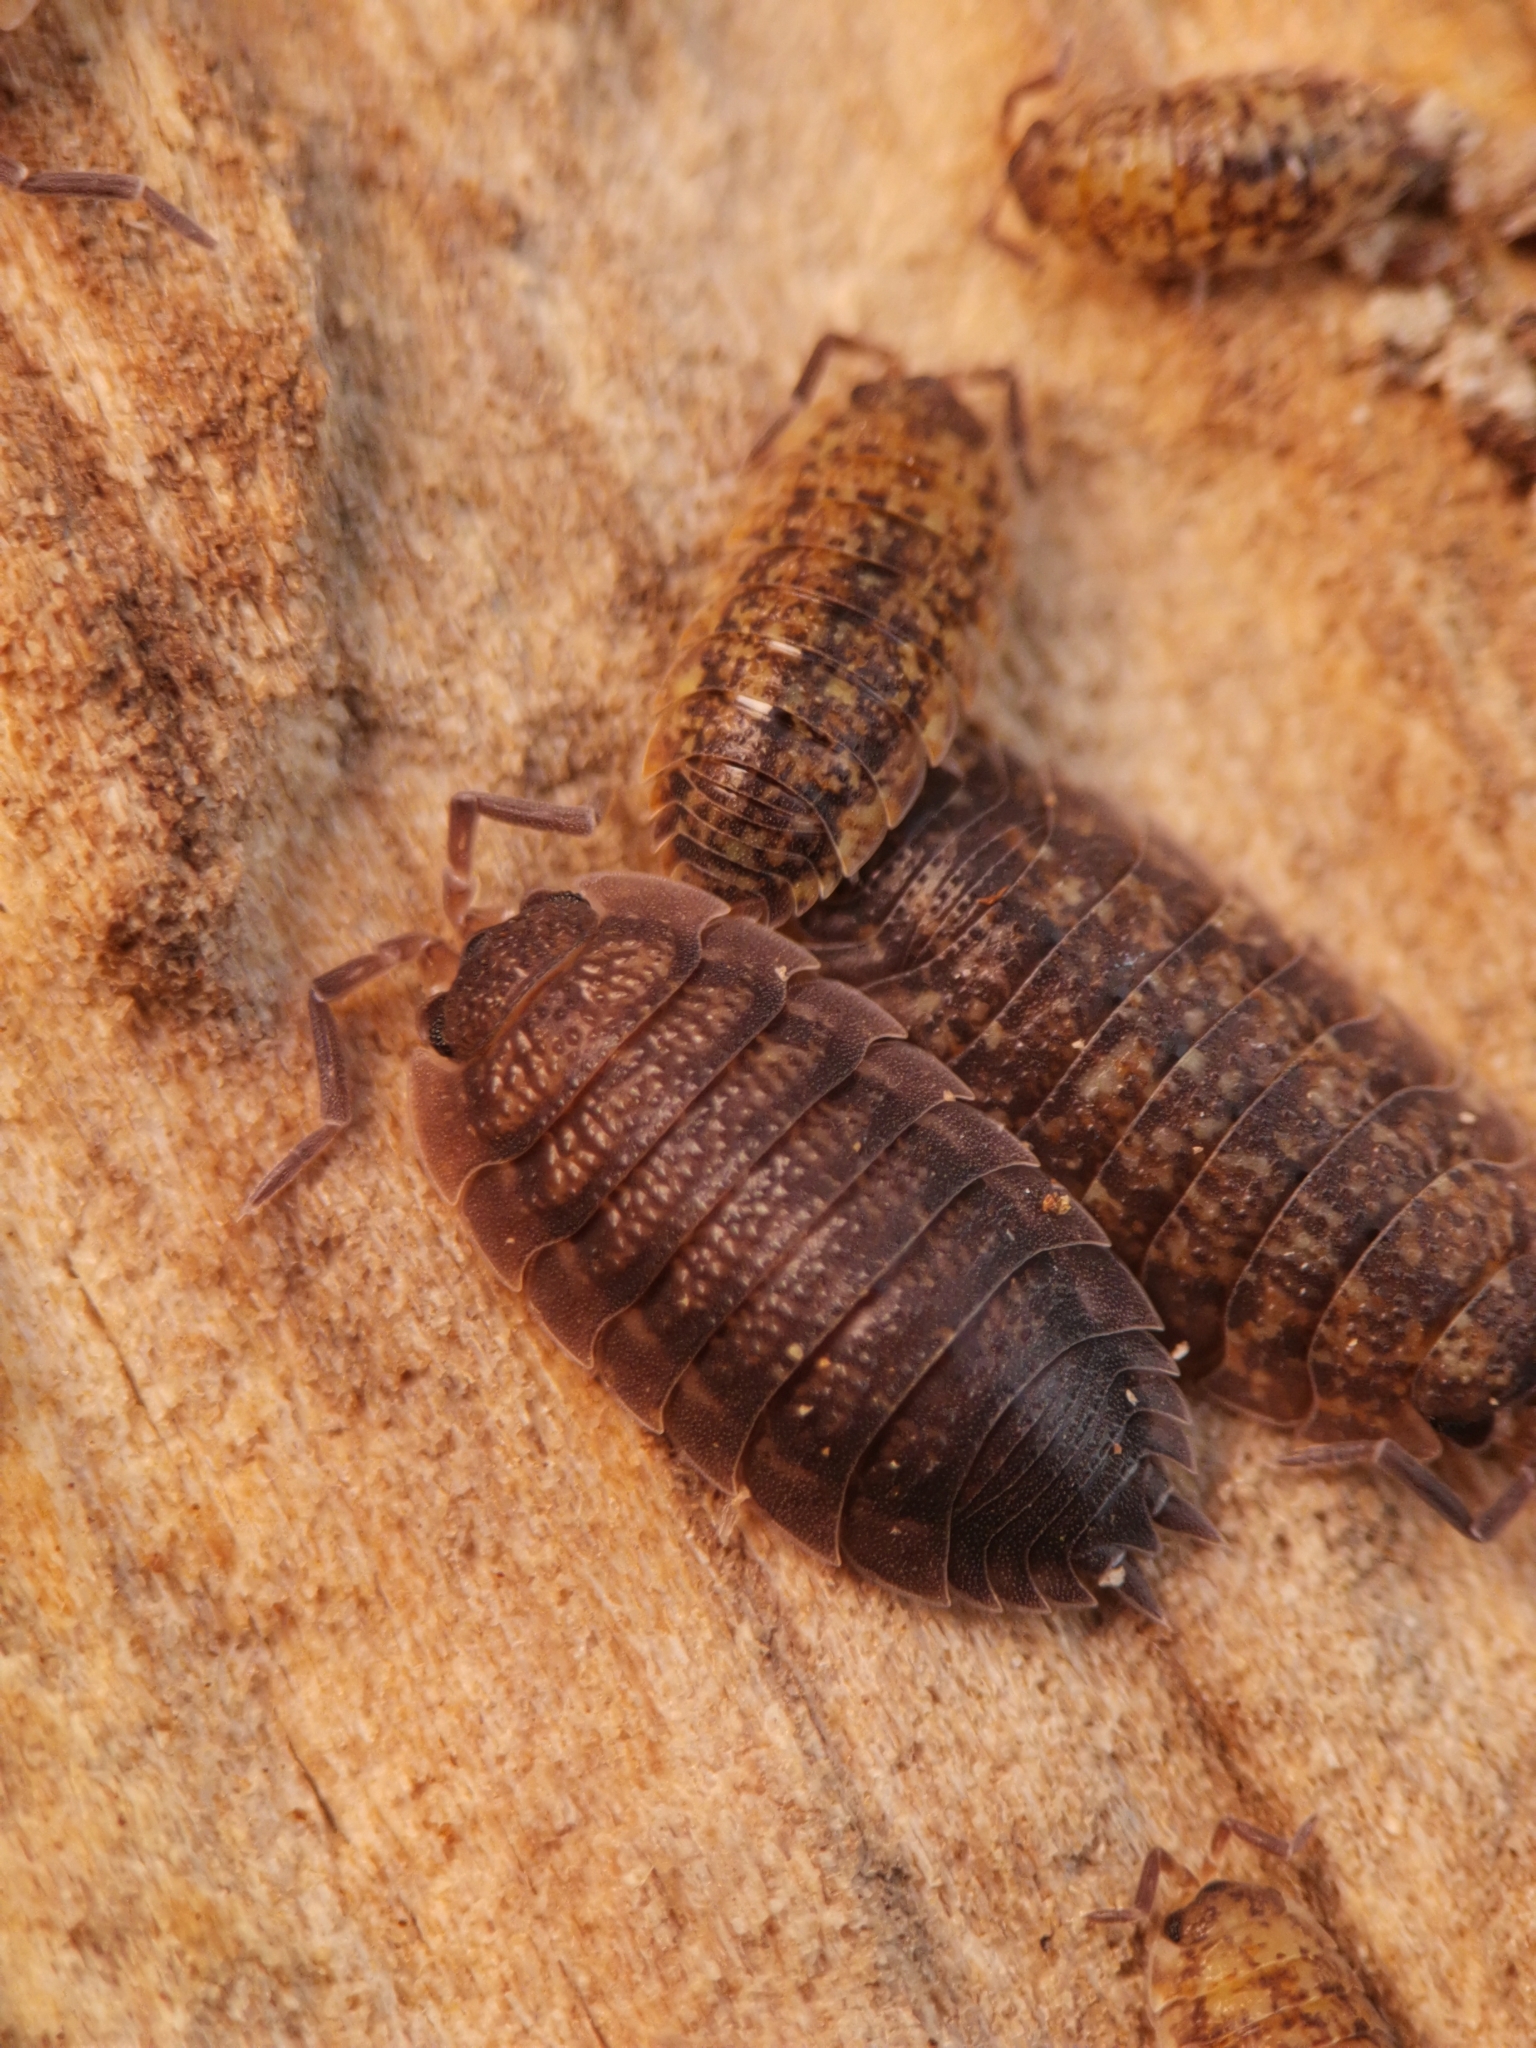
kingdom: Animalia
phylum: Arthropoda
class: Malacostraca
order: Isopoda
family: Porcellionidae
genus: Porcellio
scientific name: Porcellio scaber
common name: Common rough woodlouse
